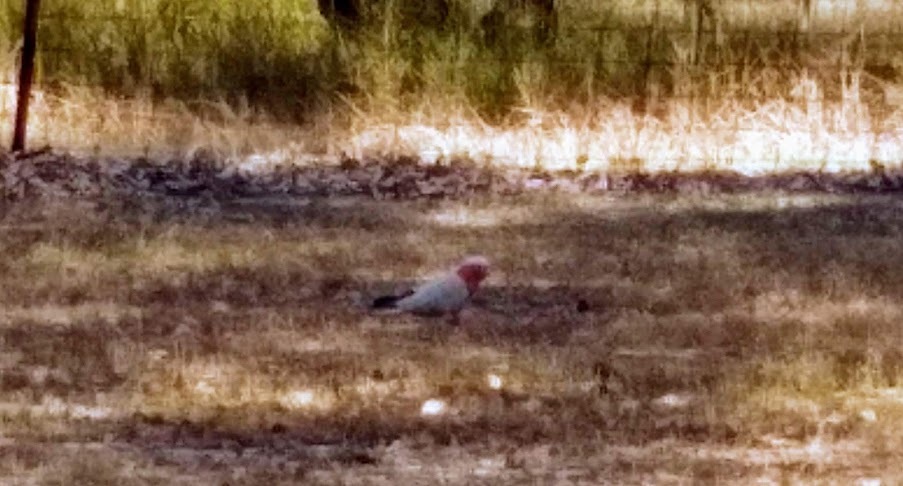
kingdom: Animalia
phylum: Chordata
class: Aves
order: Psittaciformes
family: Psittacidae
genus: Eolophus
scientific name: Eolophus roseicapilla
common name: Galah
